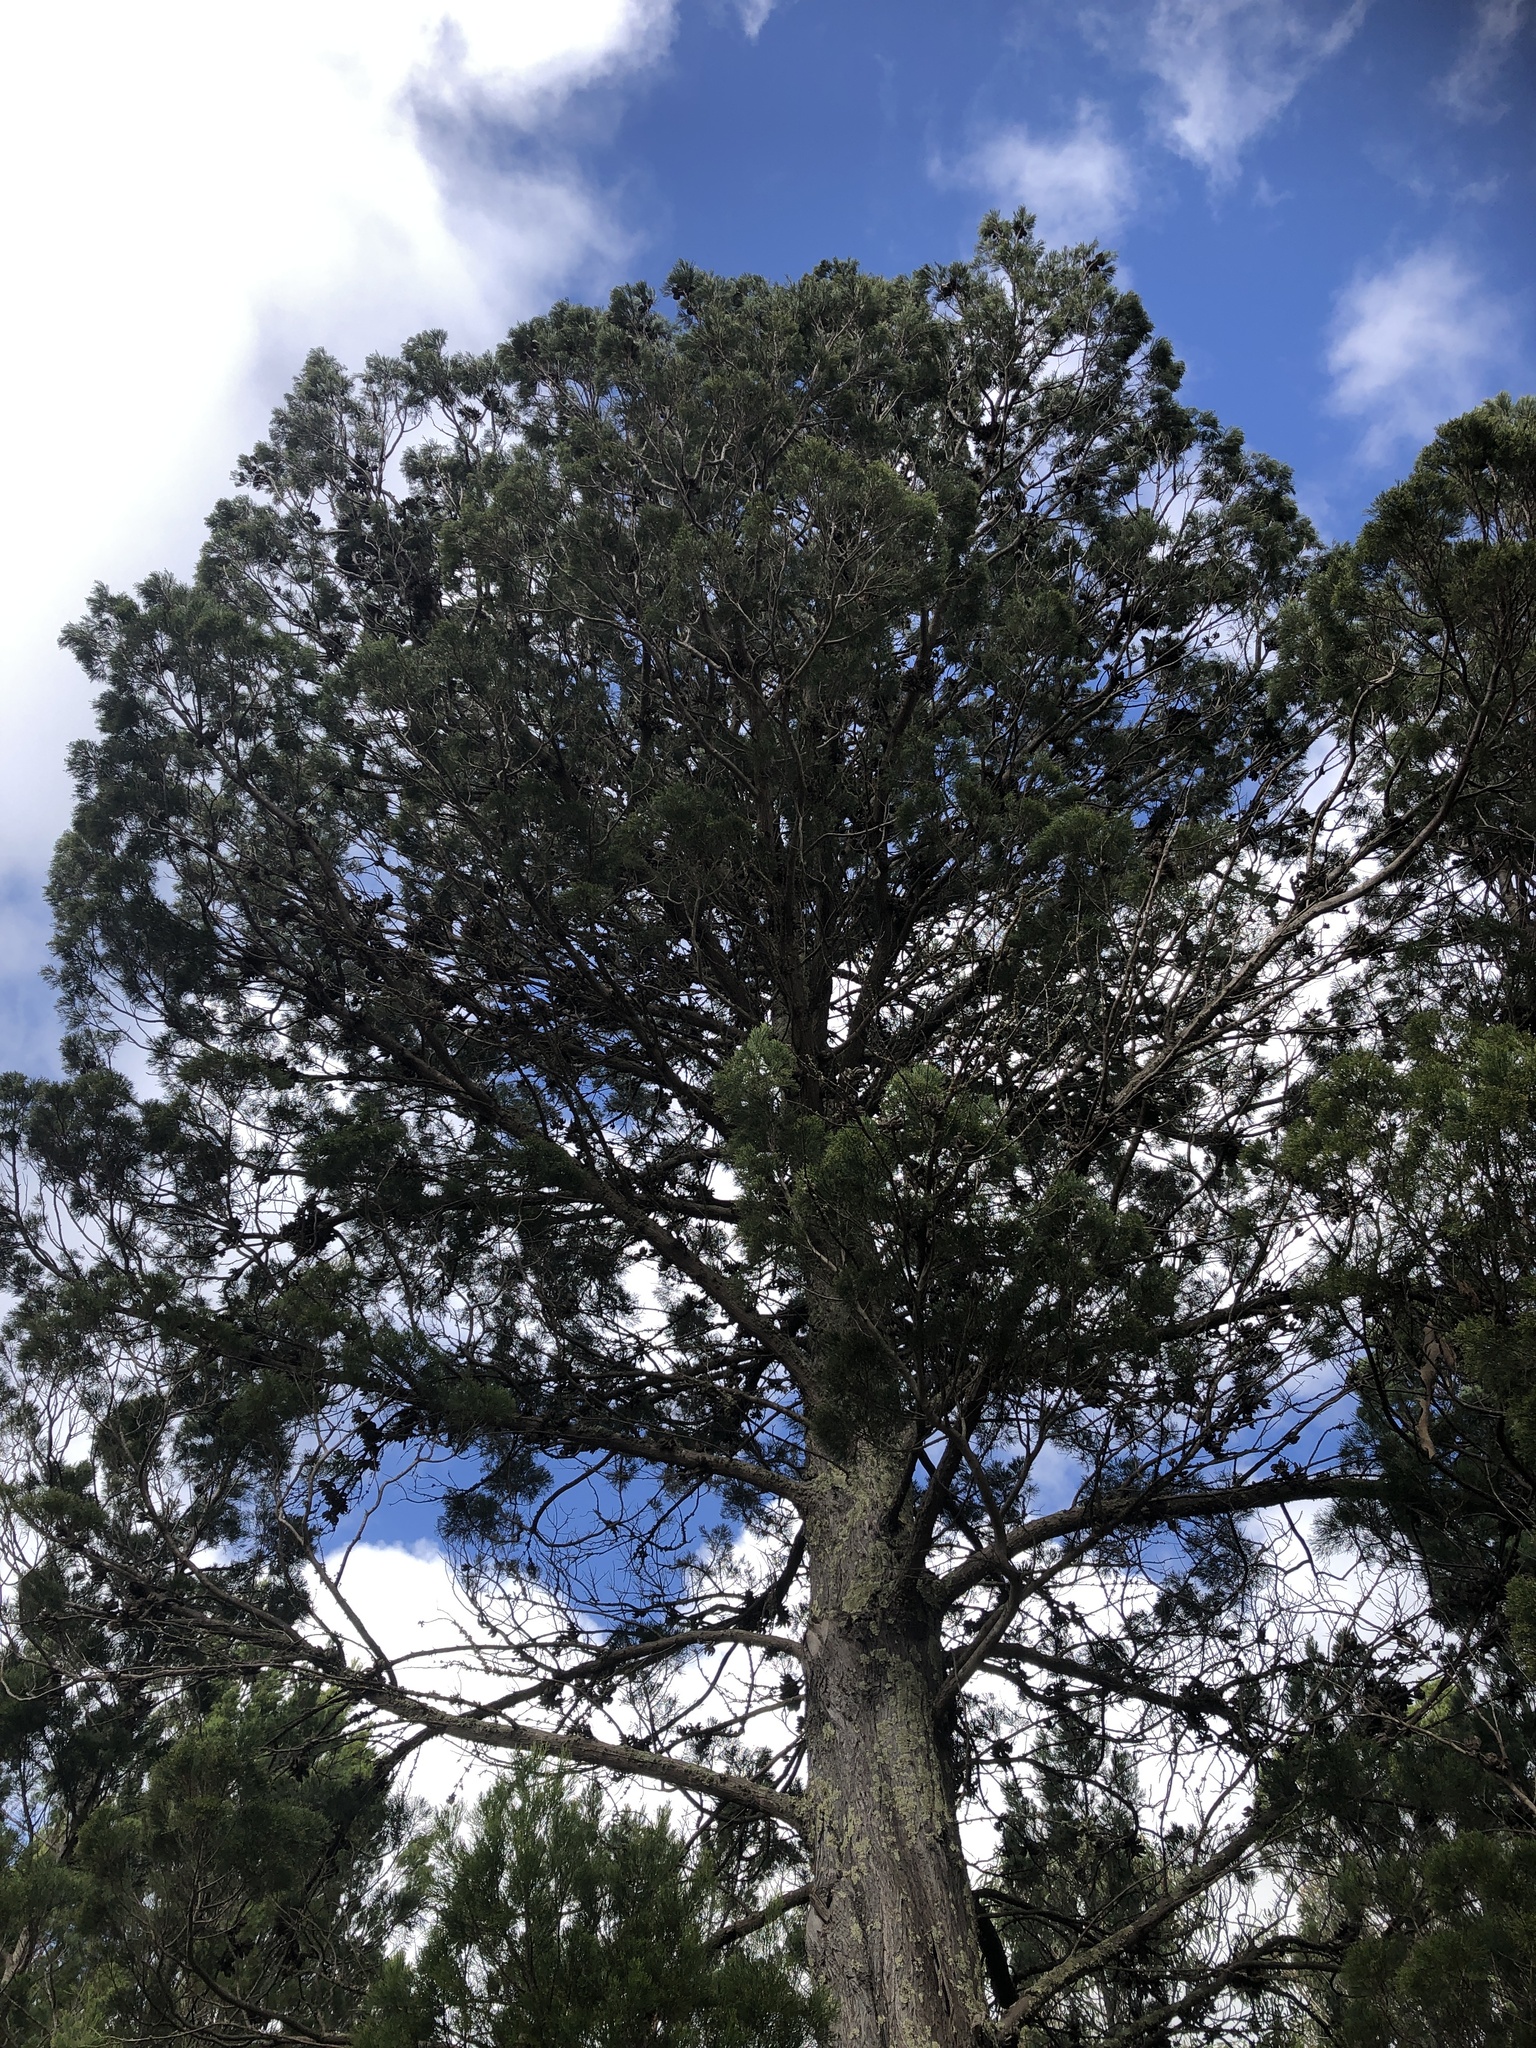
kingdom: Plantae
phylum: Tracheophyta
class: Pinopsida
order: Pinales
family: Cupressaceae
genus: Callitris
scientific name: Callitris preissii
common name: Mallee pine
